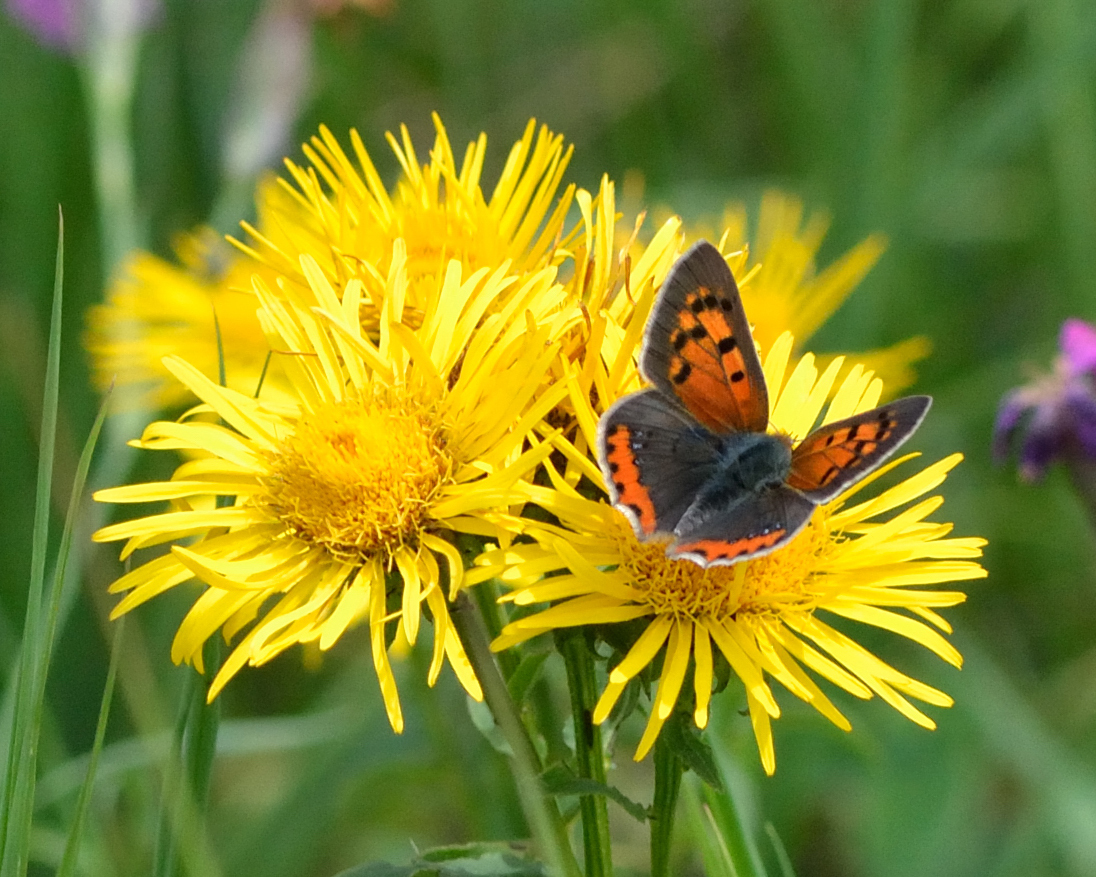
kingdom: Animalia
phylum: Arthropoda
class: Insecta
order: Lepidoptera
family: Lycaenidae
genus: Lycaena
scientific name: Lycaena phlaeas
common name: Small copper
